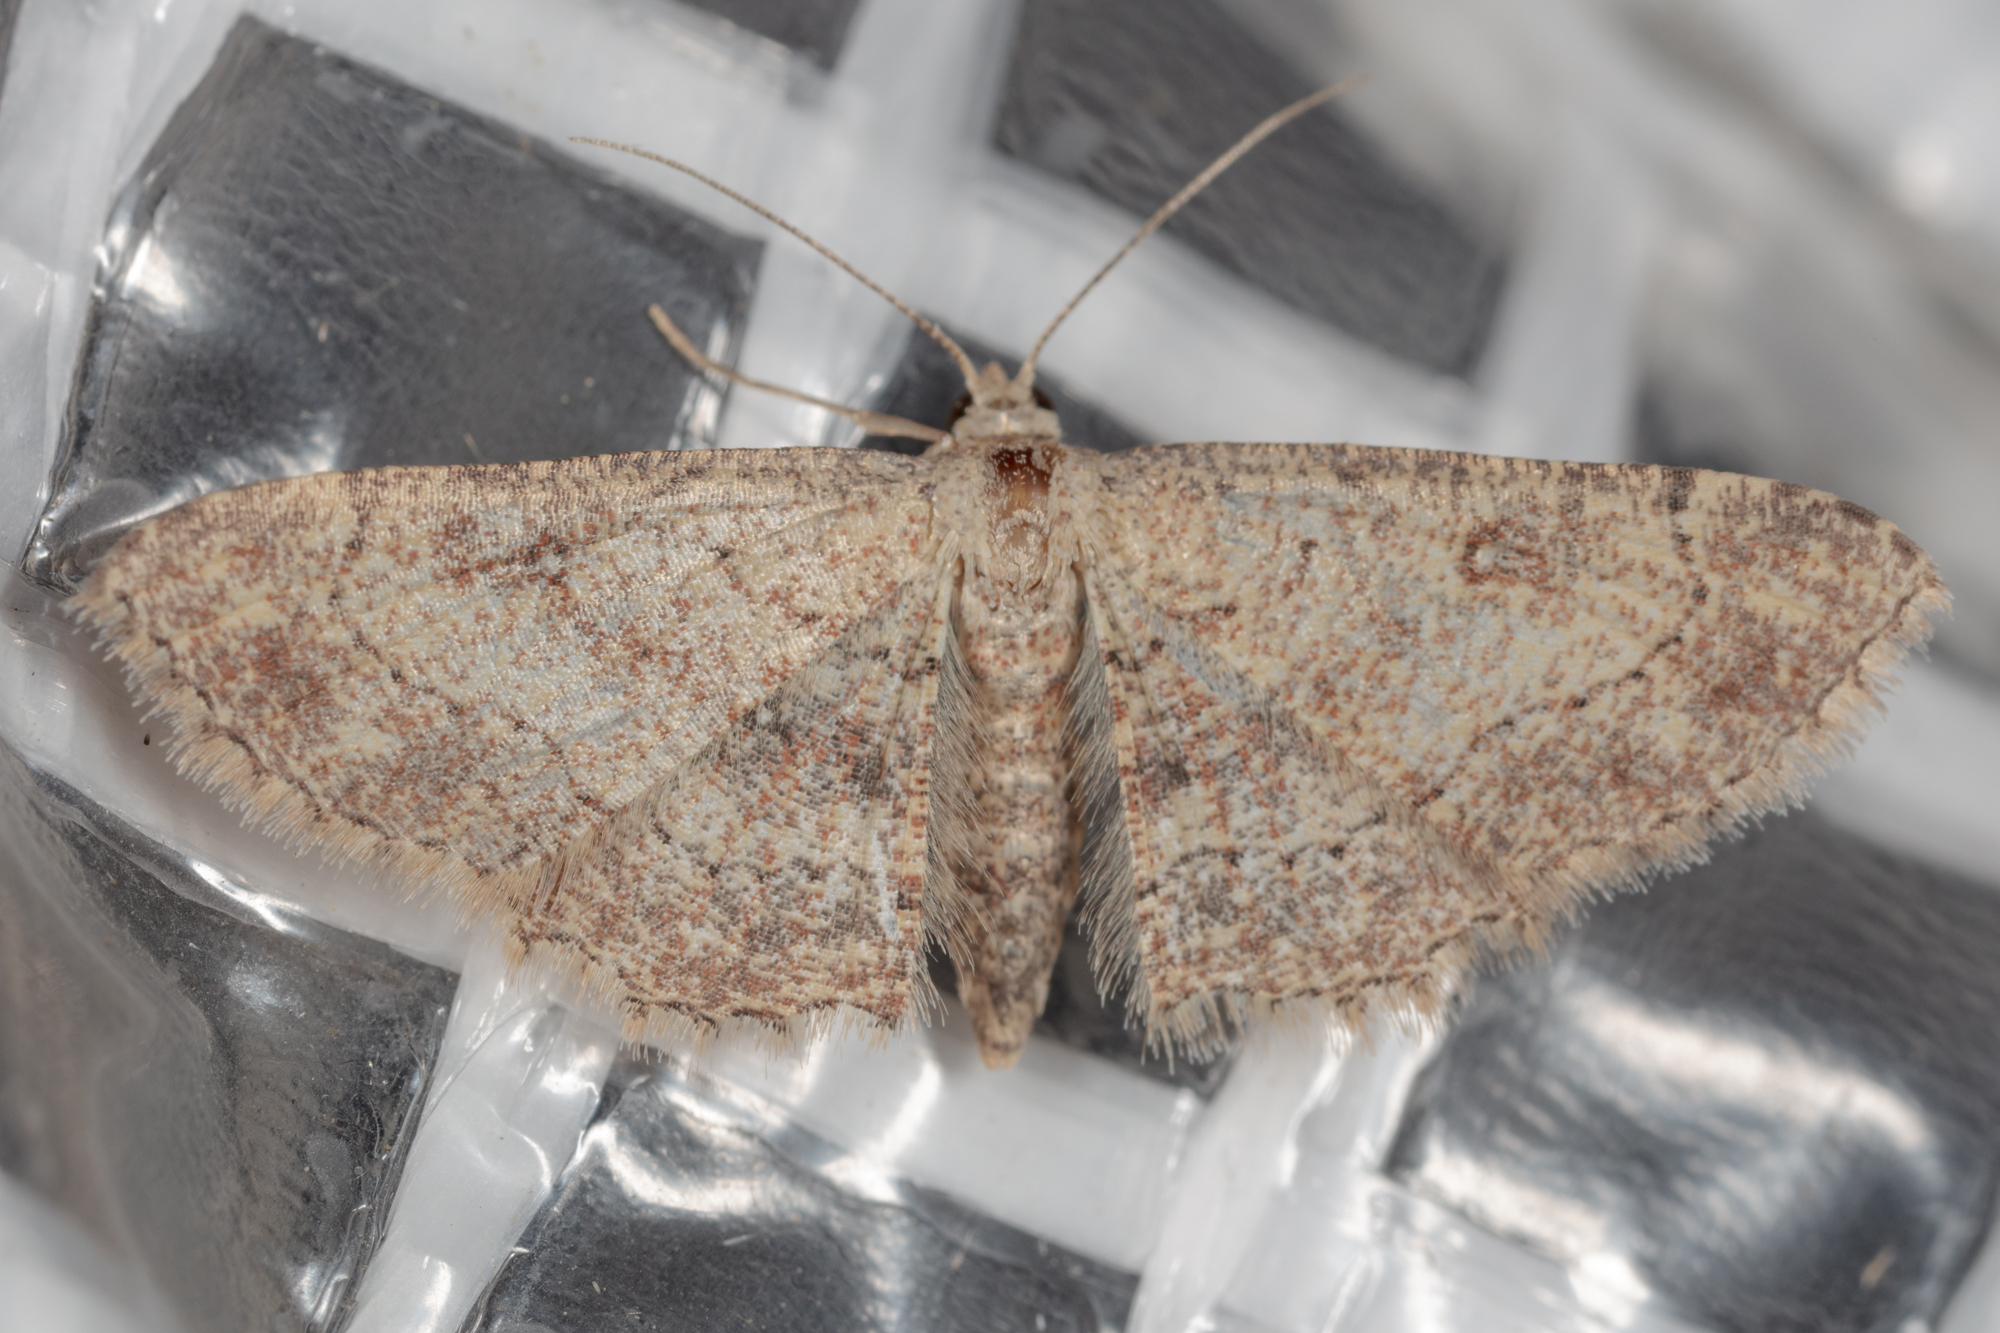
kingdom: Animalia
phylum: Arthropoda
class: Insecta
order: Lepidoptera
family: Geometridae
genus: Cyclophora
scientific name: Cyclophora nanaria
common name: Cankerworm
